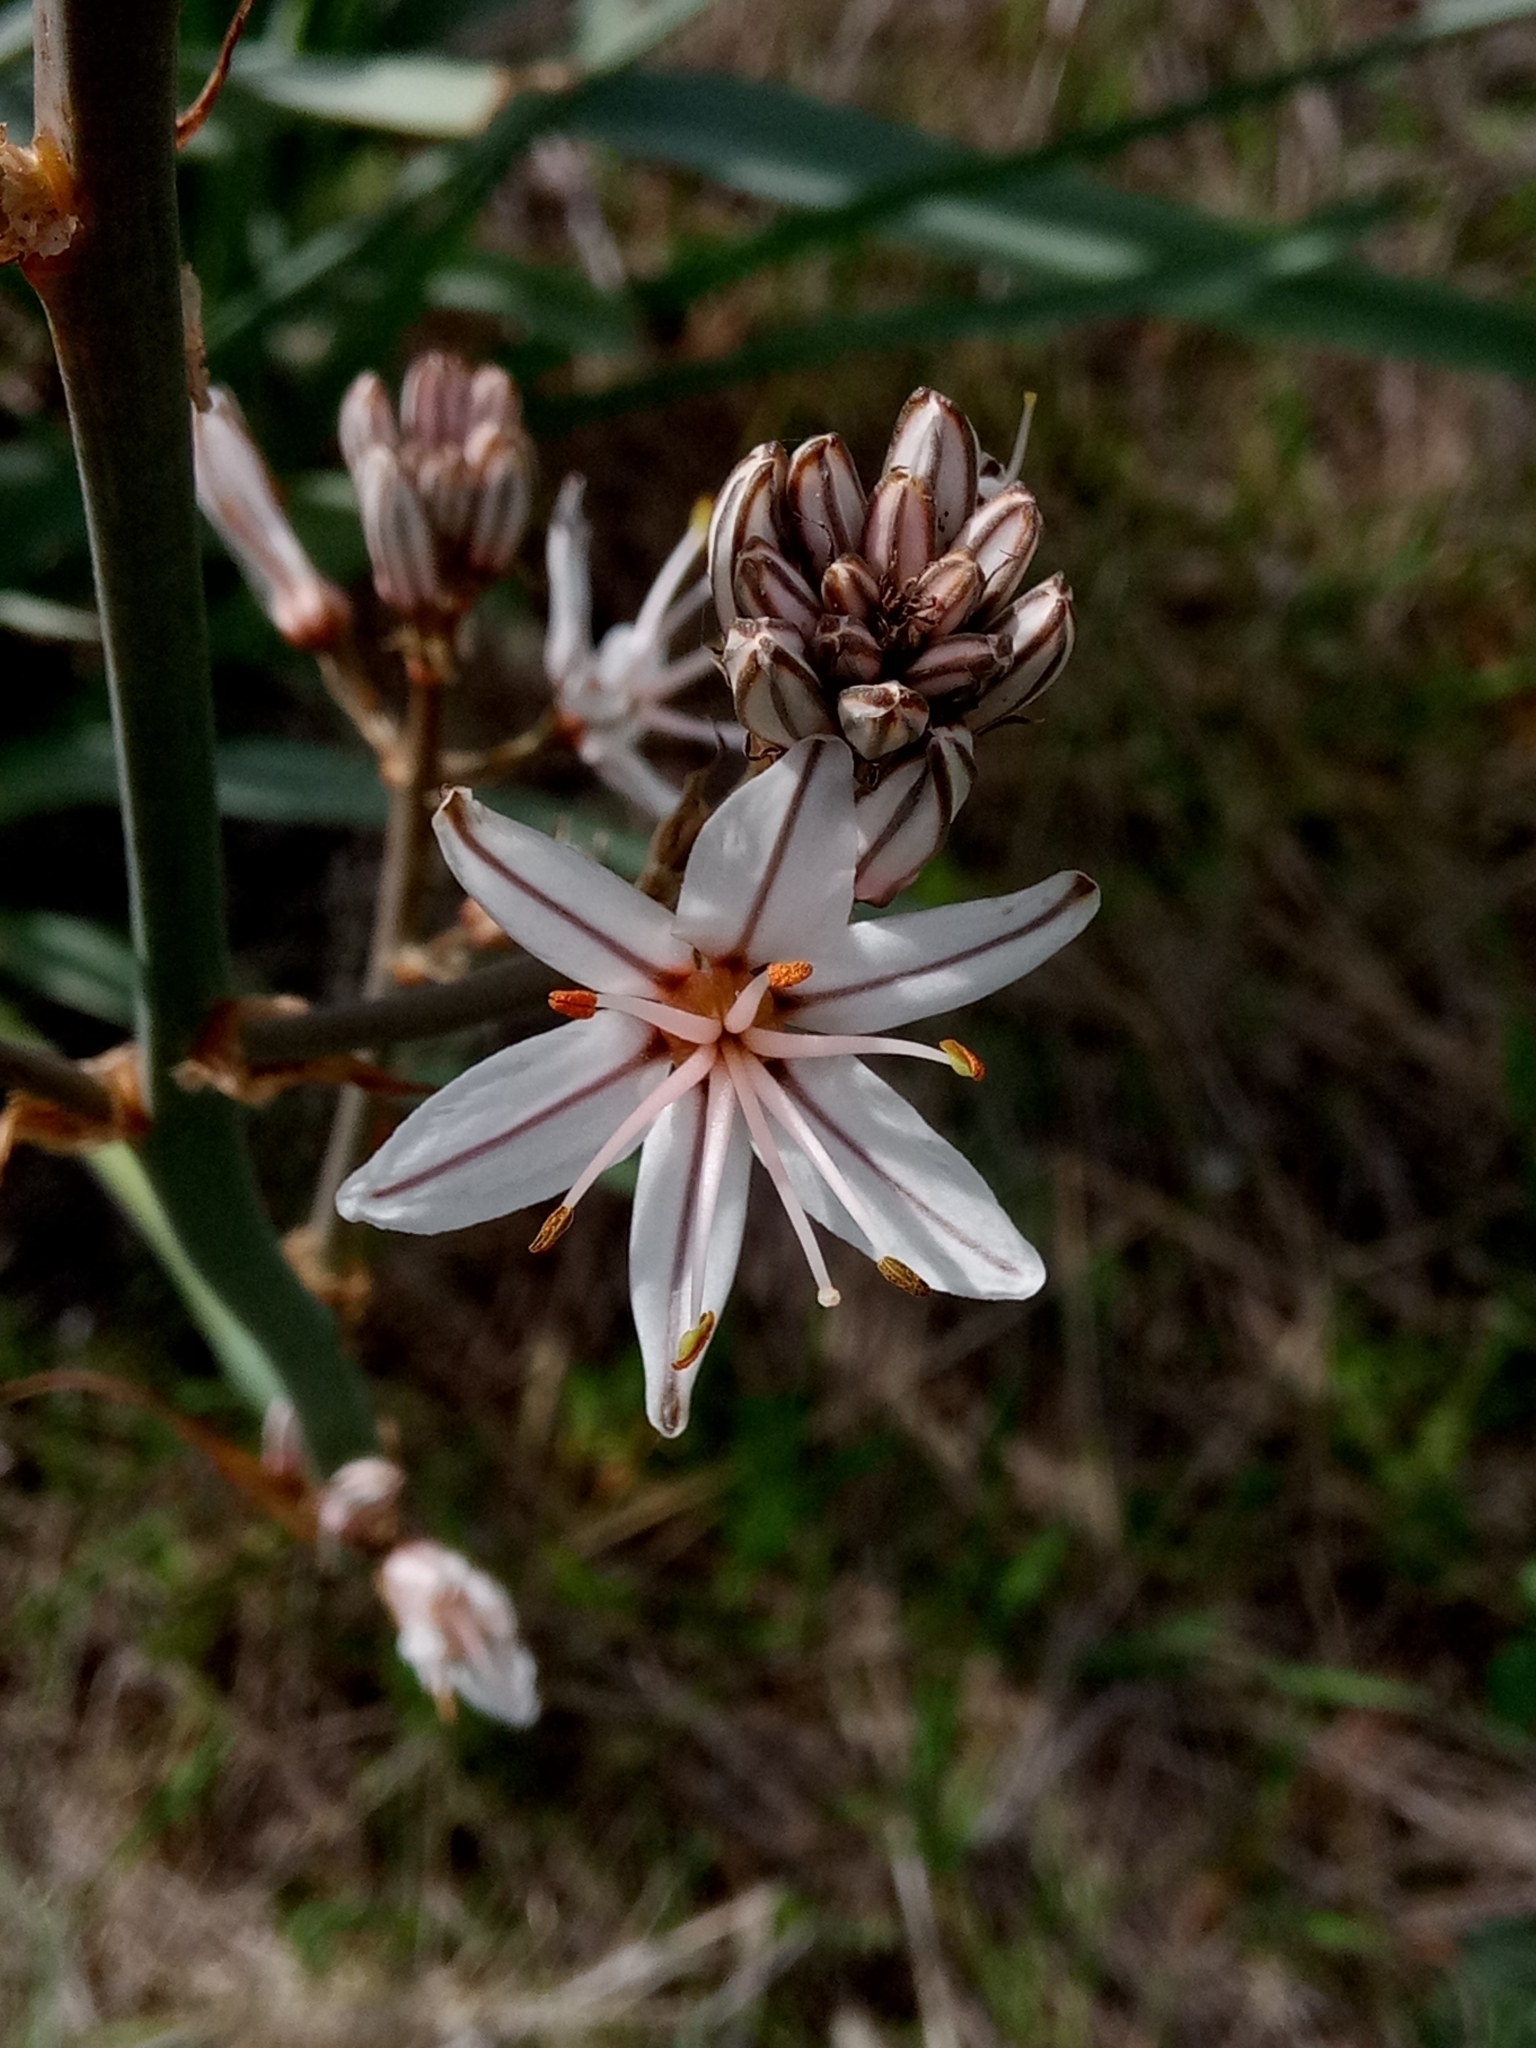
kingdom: Plantae
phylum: Tracheophyta
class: Liliopsida
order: Asparagales
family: Asphodelaceae
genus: Asphodelus
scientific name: Asphodelus ramosus
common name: Silverrod
